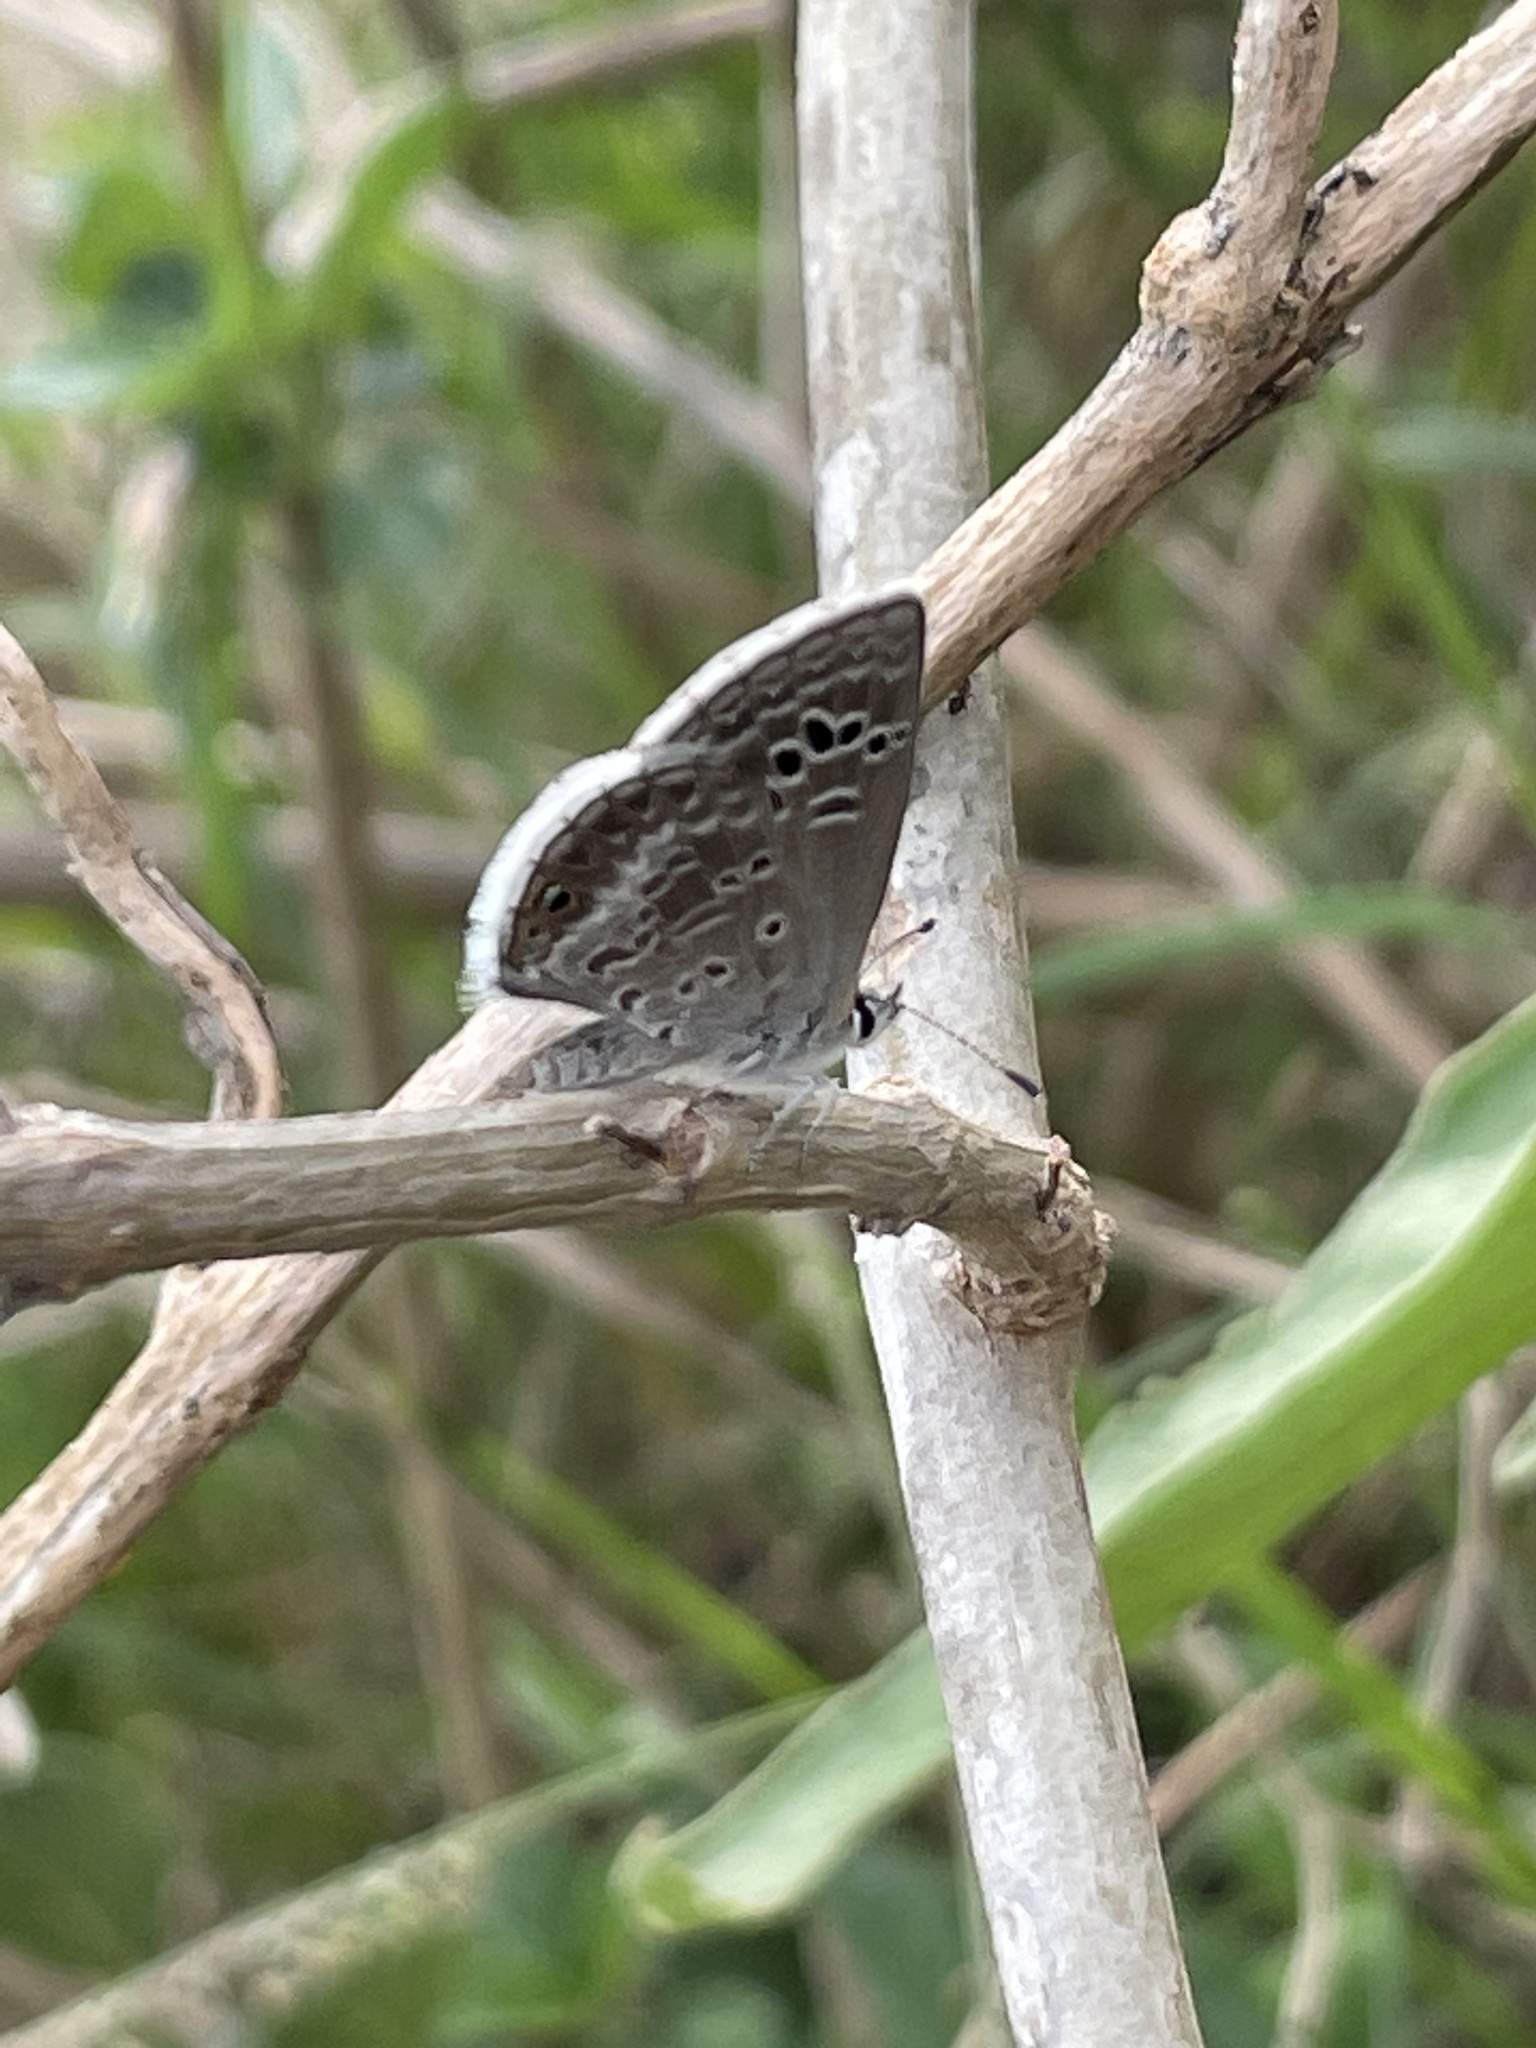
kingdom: Animalia
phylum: Arthropoda
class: Insecta
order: Lepidoptera
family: Lycaenidae
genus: Echinargus
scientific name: Echinargus isola
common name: Reakirt's blue
